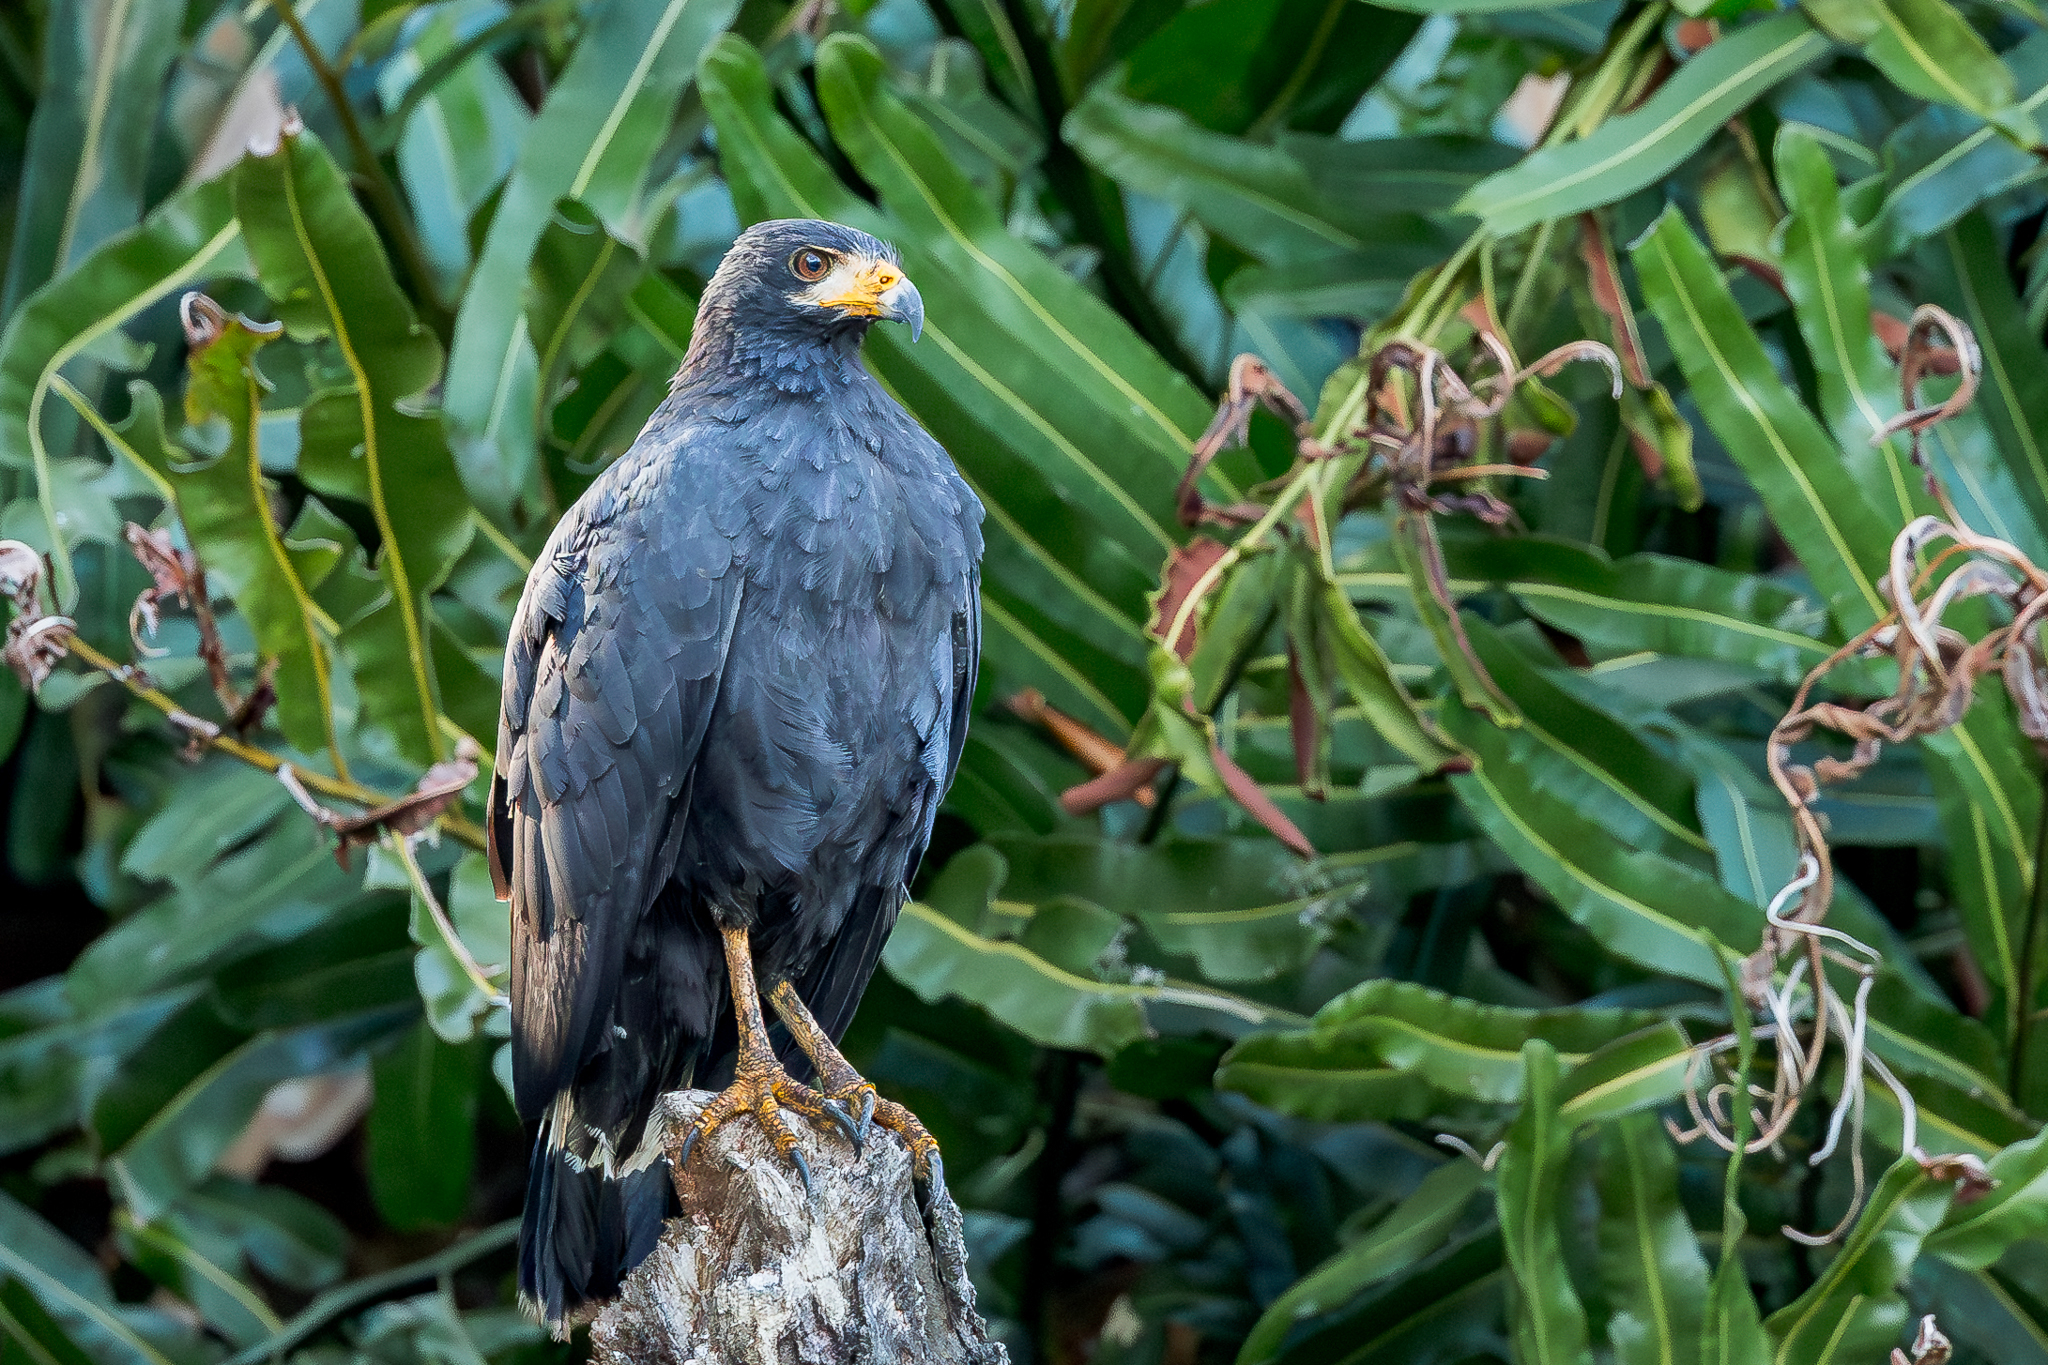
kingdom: Animalia
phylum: Chordata
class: Aves
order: Accipitriformes
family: Accipitridae
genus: Buteogallus
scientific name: Buteogallus anthracinus
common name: Common black hawk
